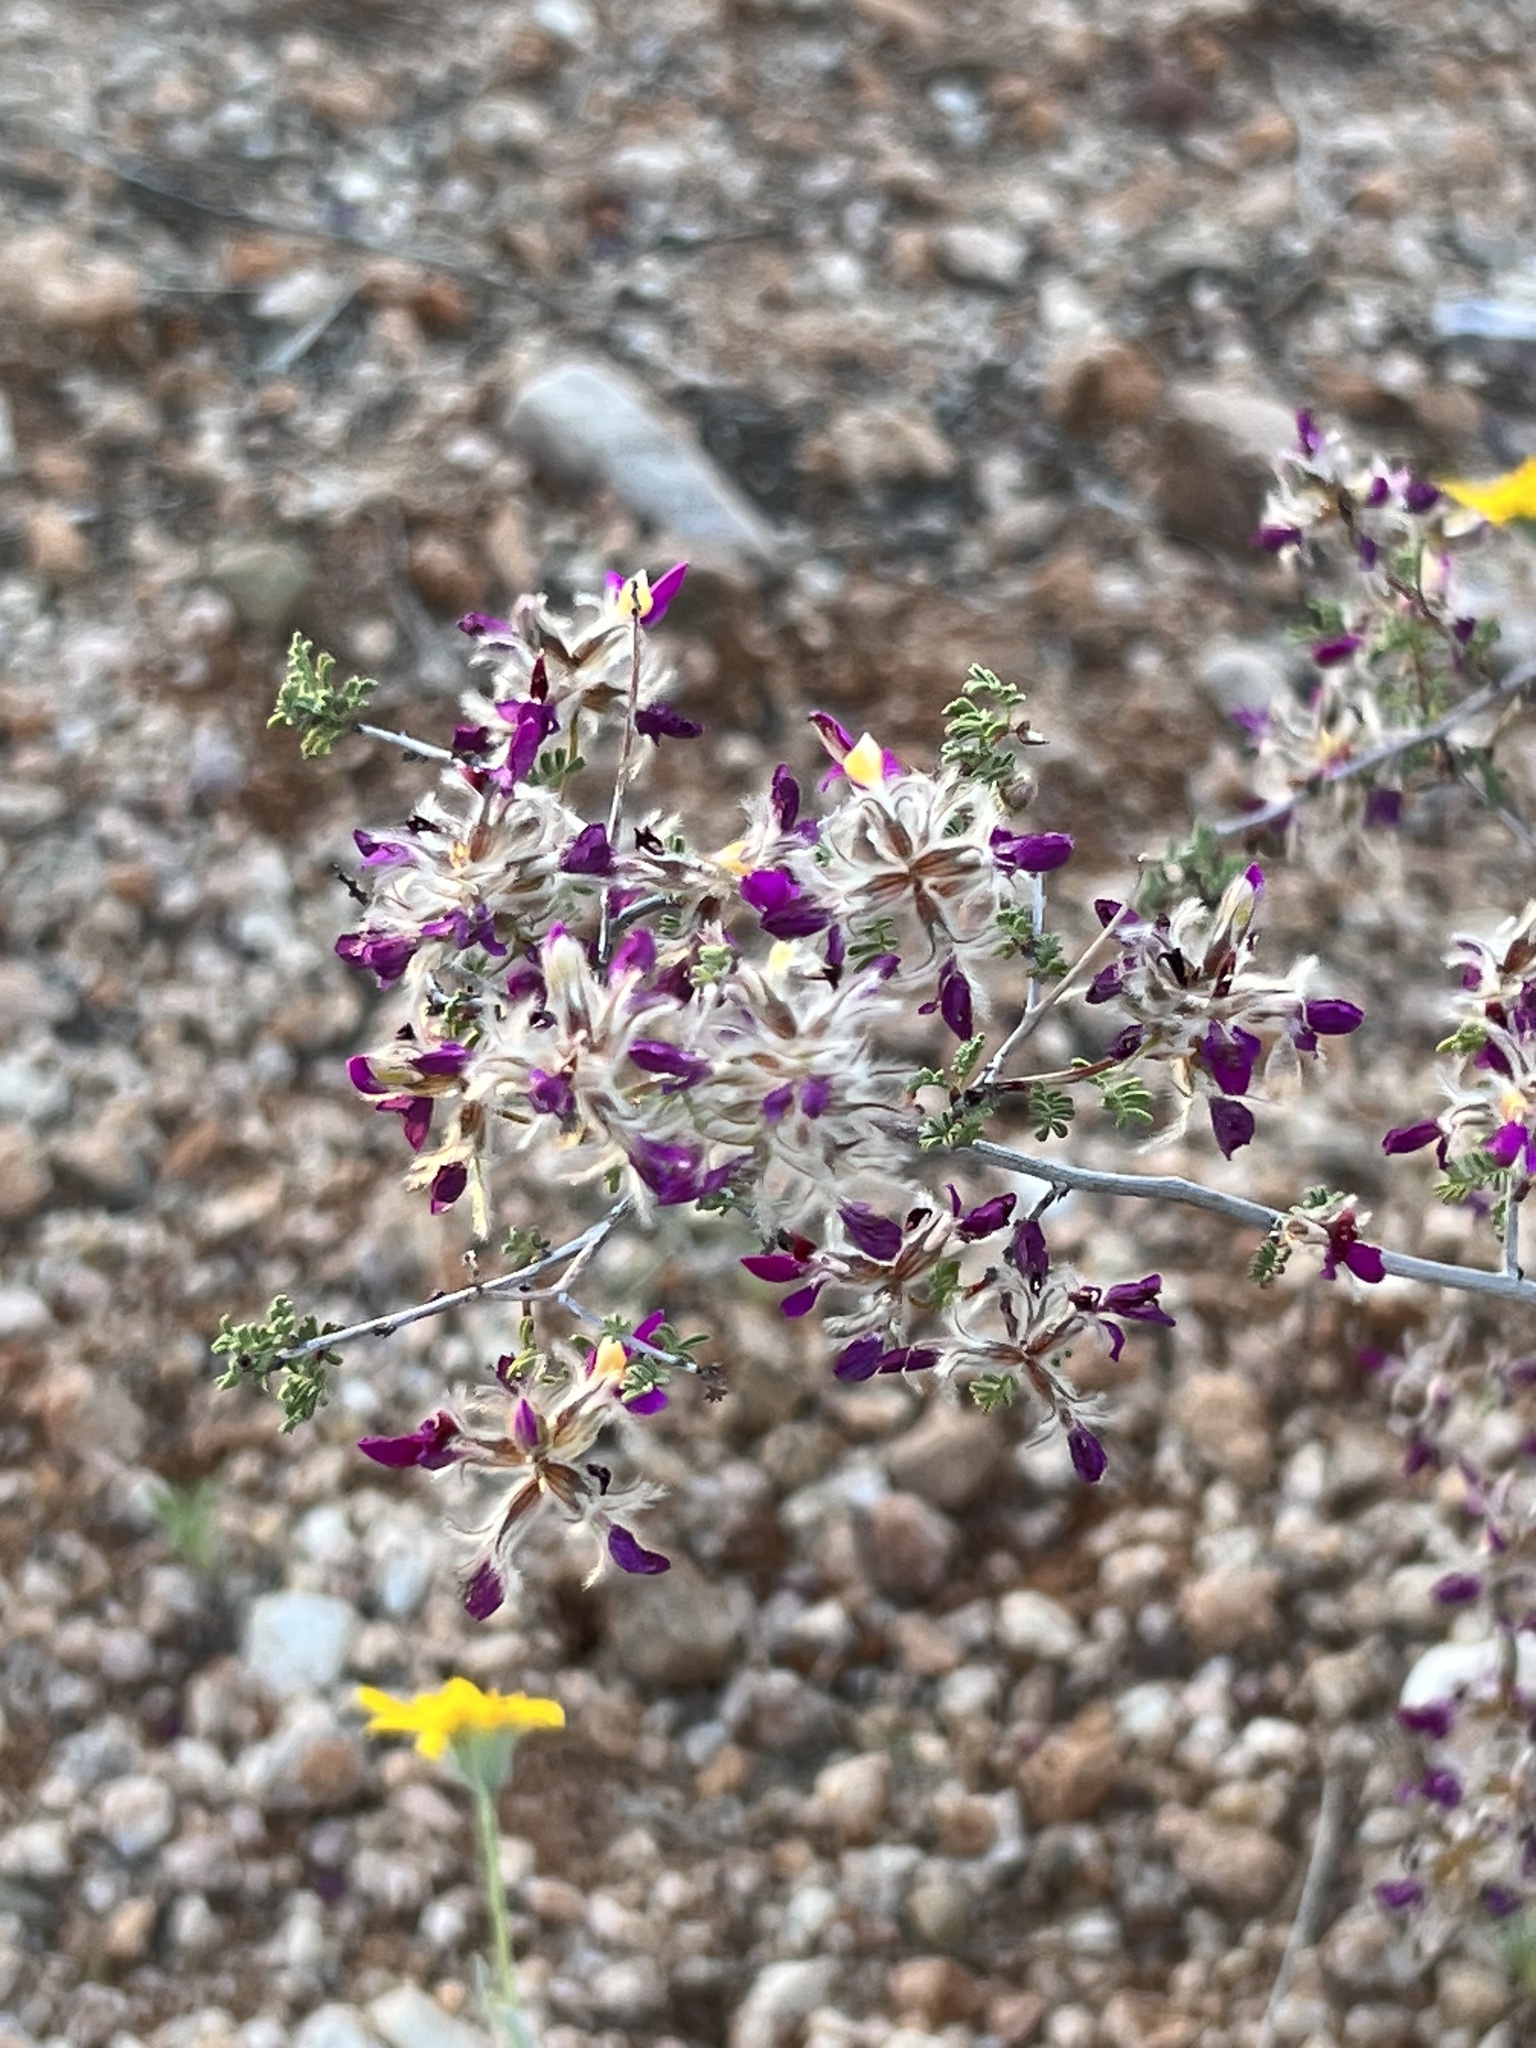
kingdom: Plantae
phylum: Tracheophyta
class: Magnoliopsida
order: Fabales
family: Fabaceae
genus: Dalea
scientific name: Dalea formosa
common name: Feather-plume dalea
